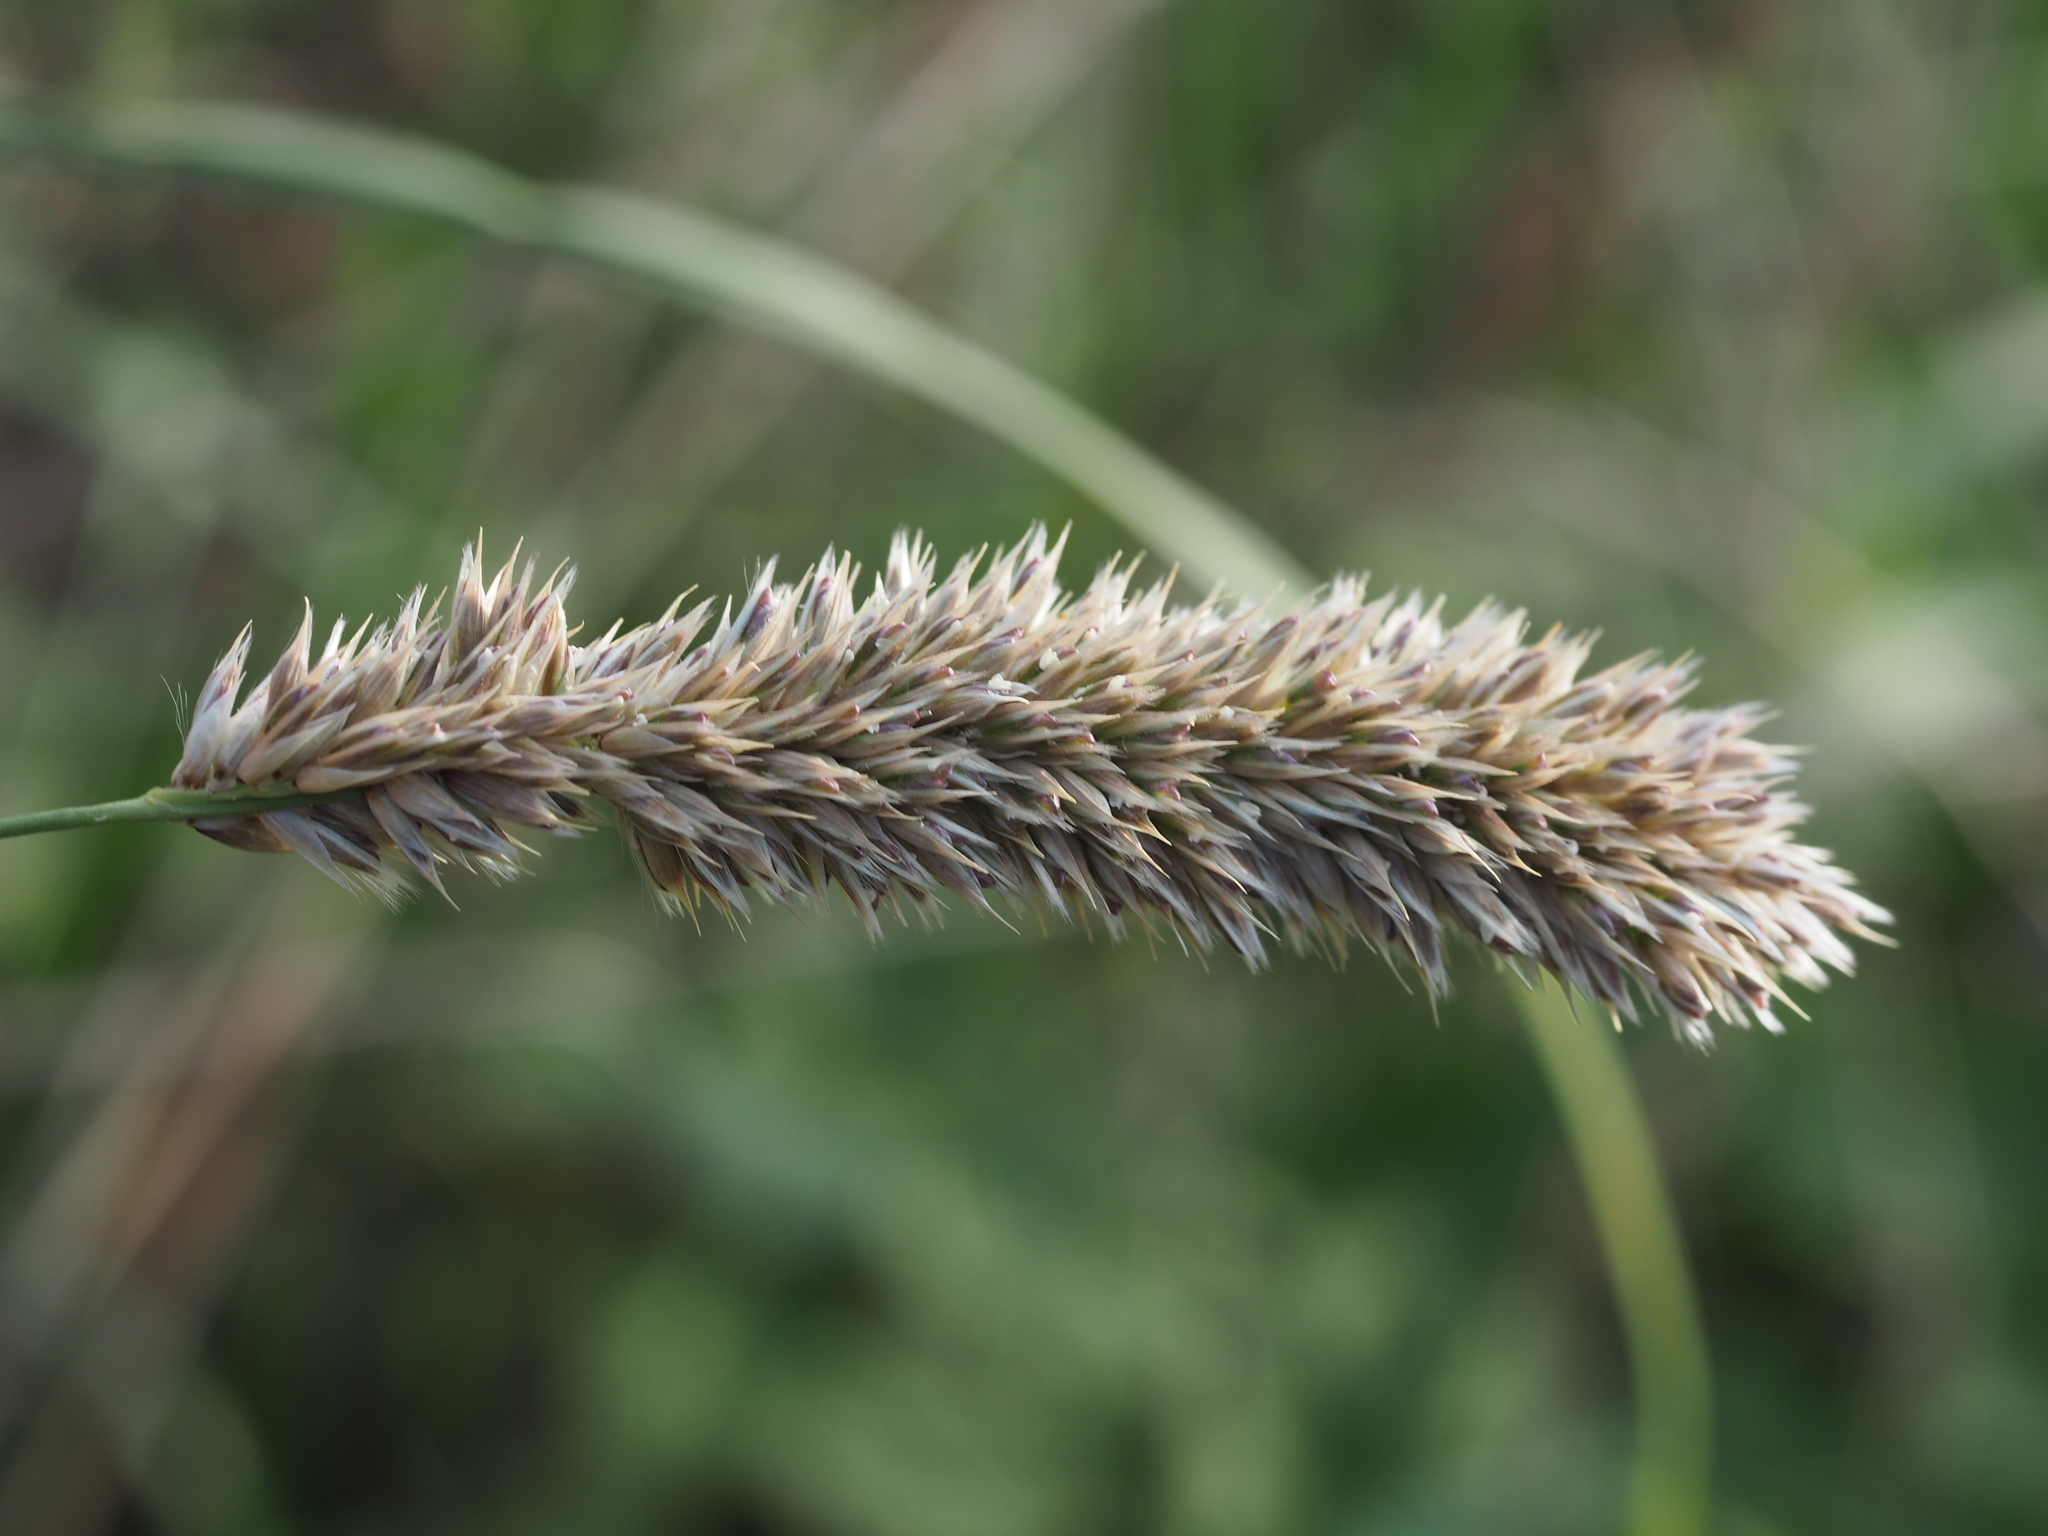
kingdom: Plantae
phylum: Tracheophyta
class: Liliopsida
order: Poales
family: Poaceae
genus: Melica
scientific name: Melica transsilvanica
